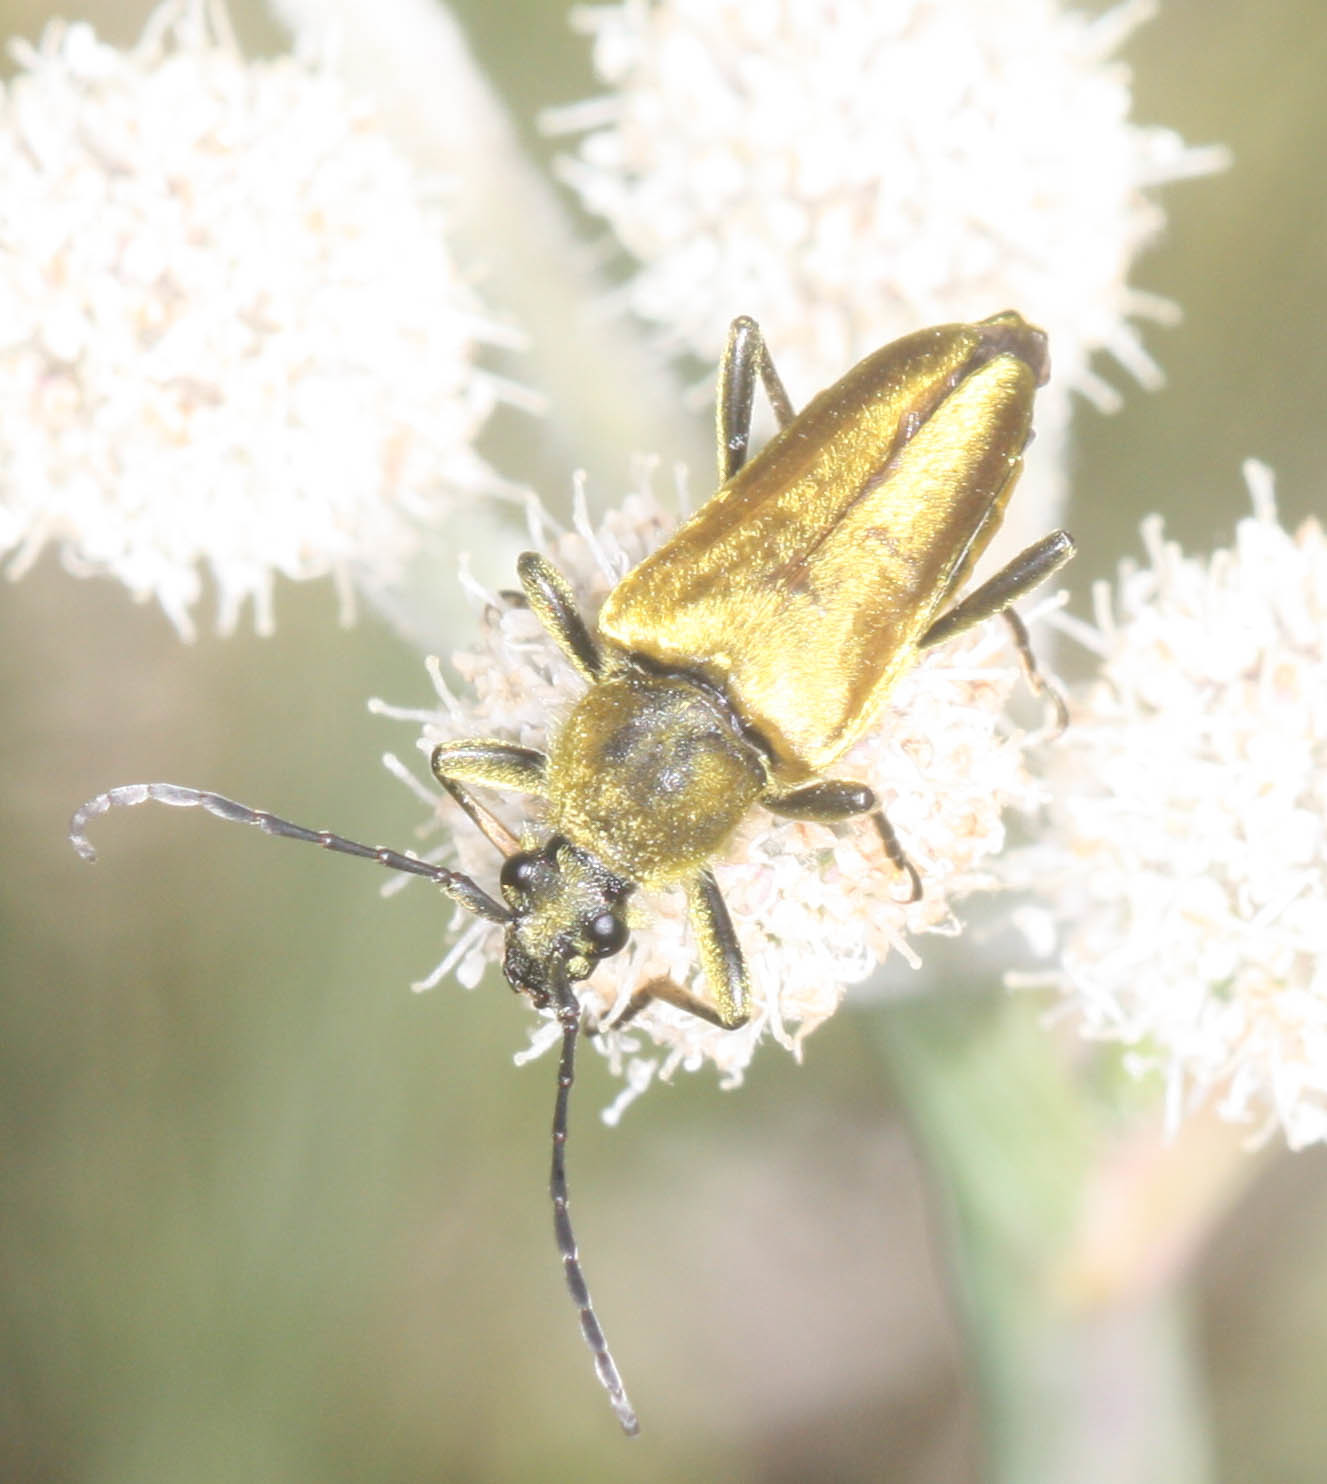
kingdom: Animalia
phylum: Arthropoda
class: Insecta
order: Coleoptera
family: Cerambycidae
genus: Cosmosalia
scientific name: Cosmosalia chrysocoma
